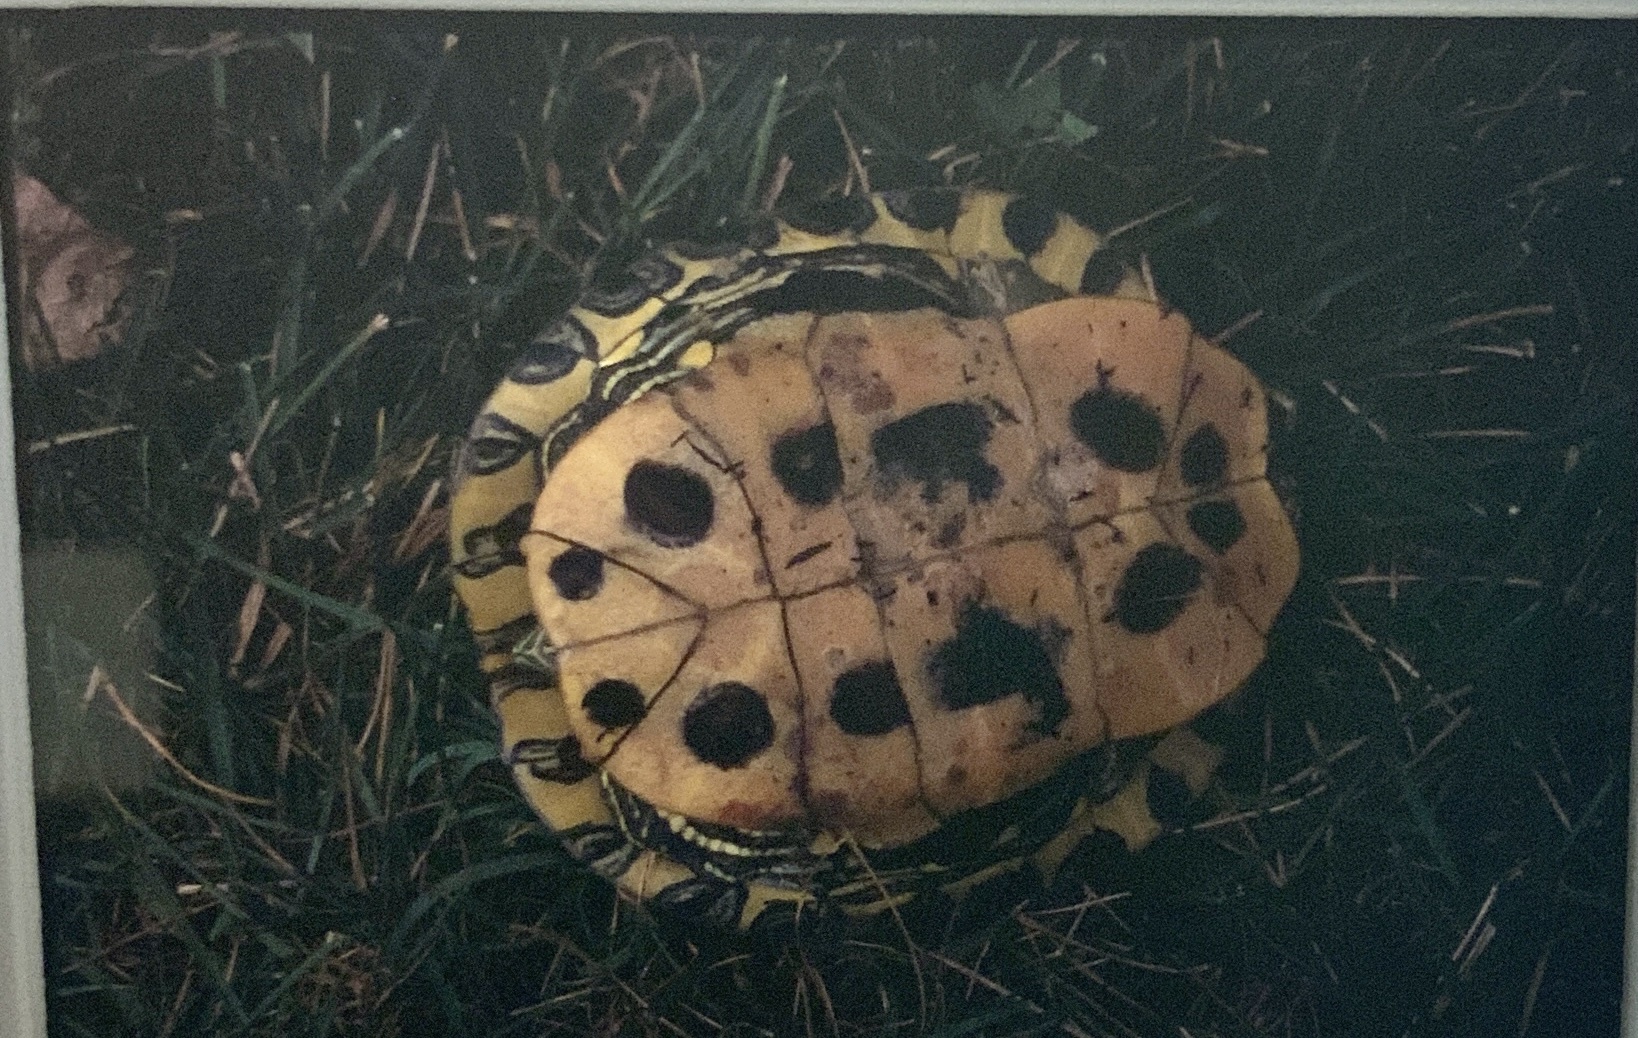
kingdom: Animalia
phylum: Chordata
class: Testudines
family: Emydidae
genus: Trachemys
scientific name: Trachemys scripta
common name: Slider
